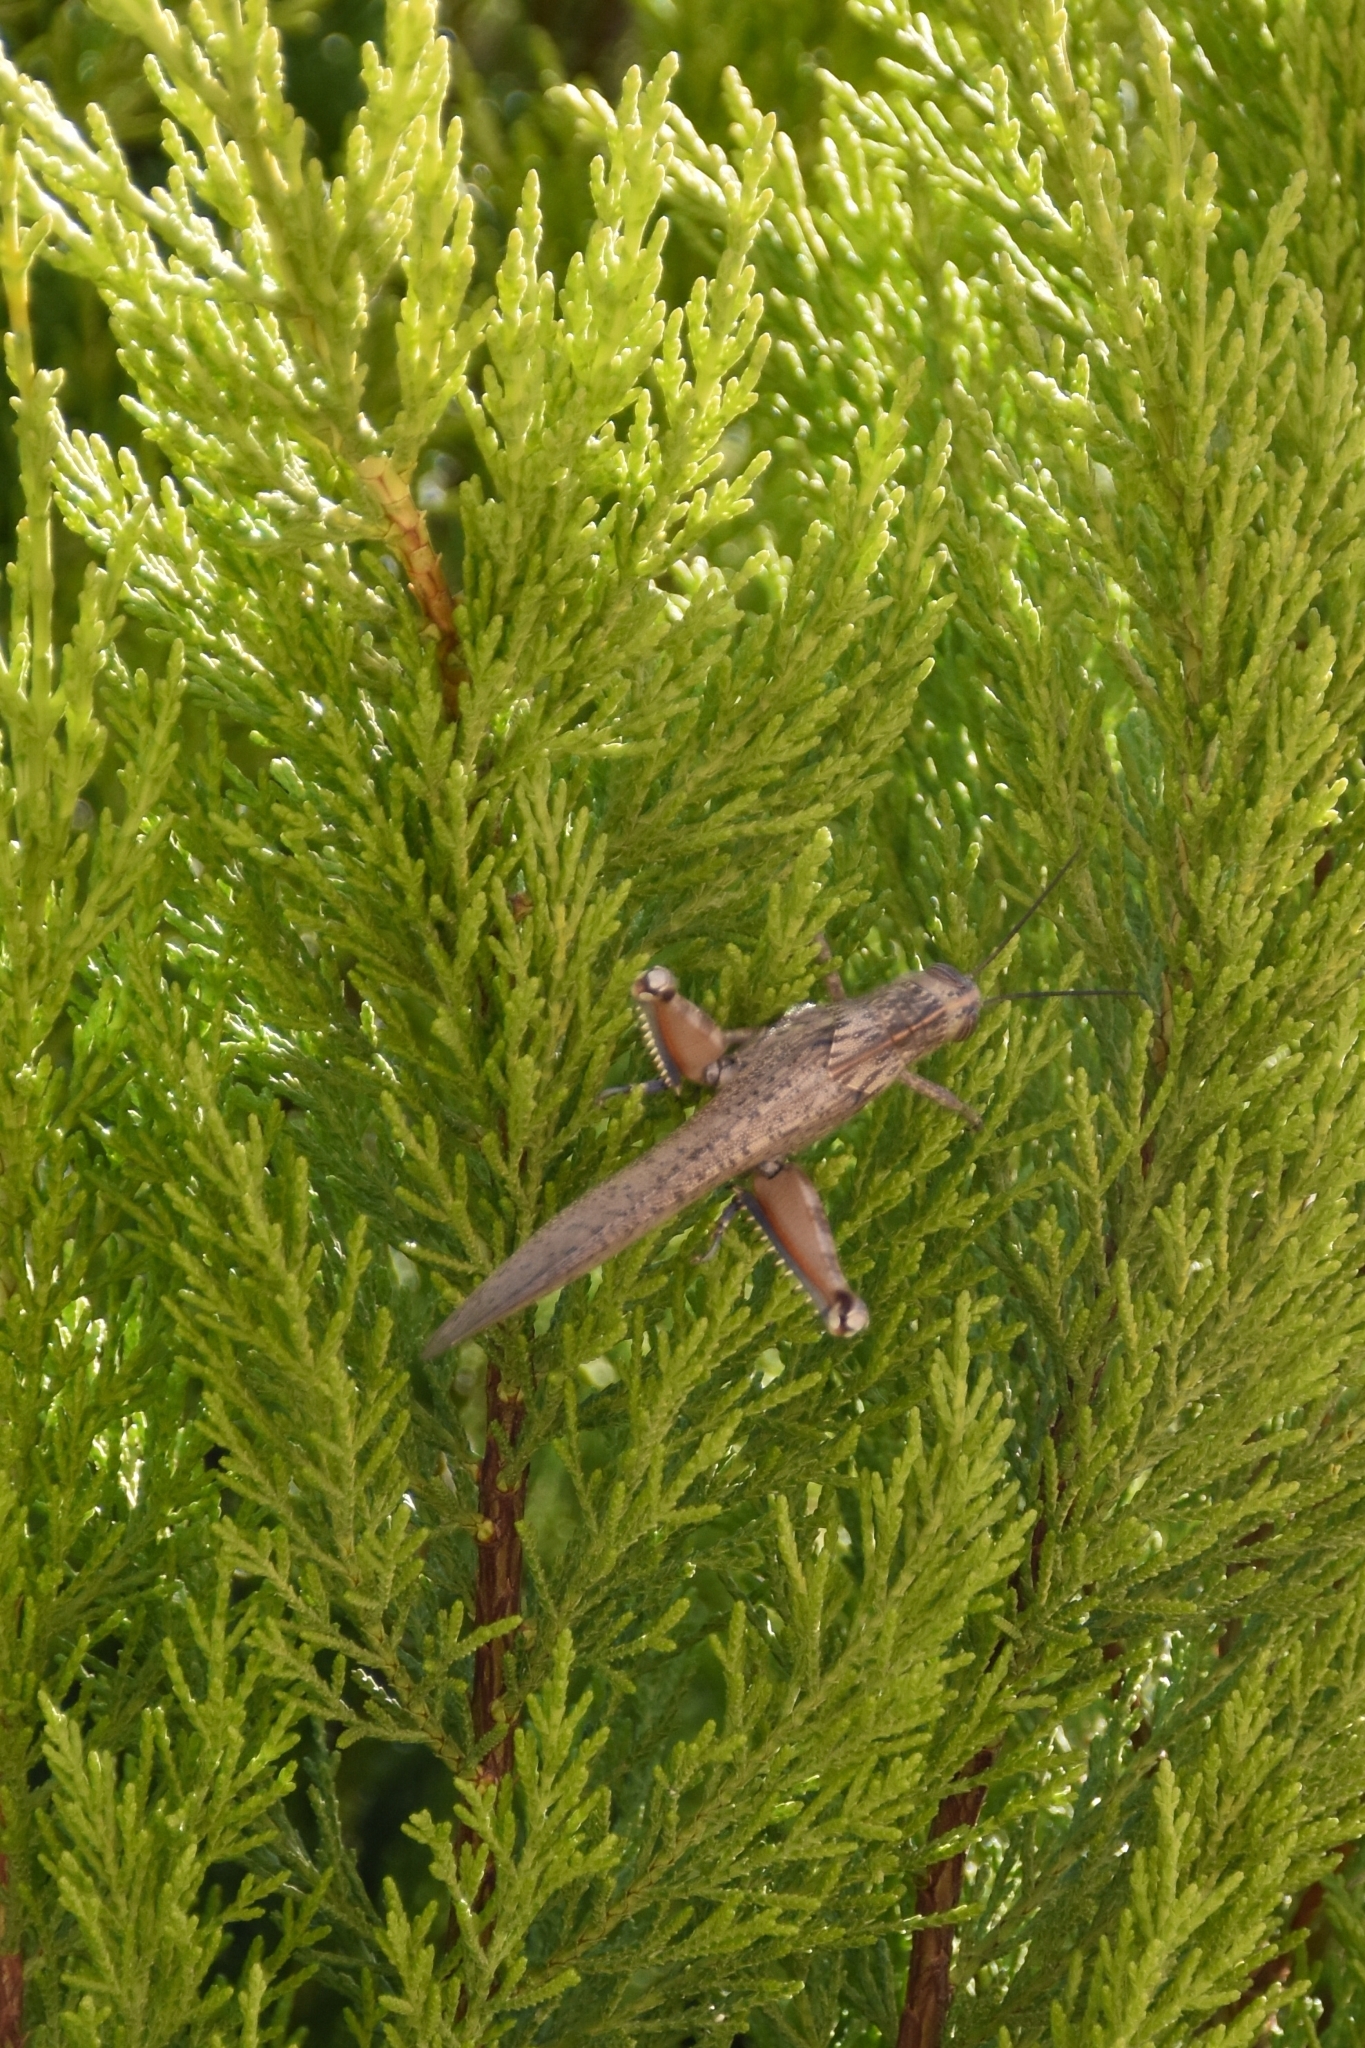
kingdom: Animalia
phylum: Arthropoda
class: Insecta
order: Orthoptera
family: Acrididae
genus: Anacridium
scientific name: Anacridium aegyptium
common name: Egyptian grasshopper
